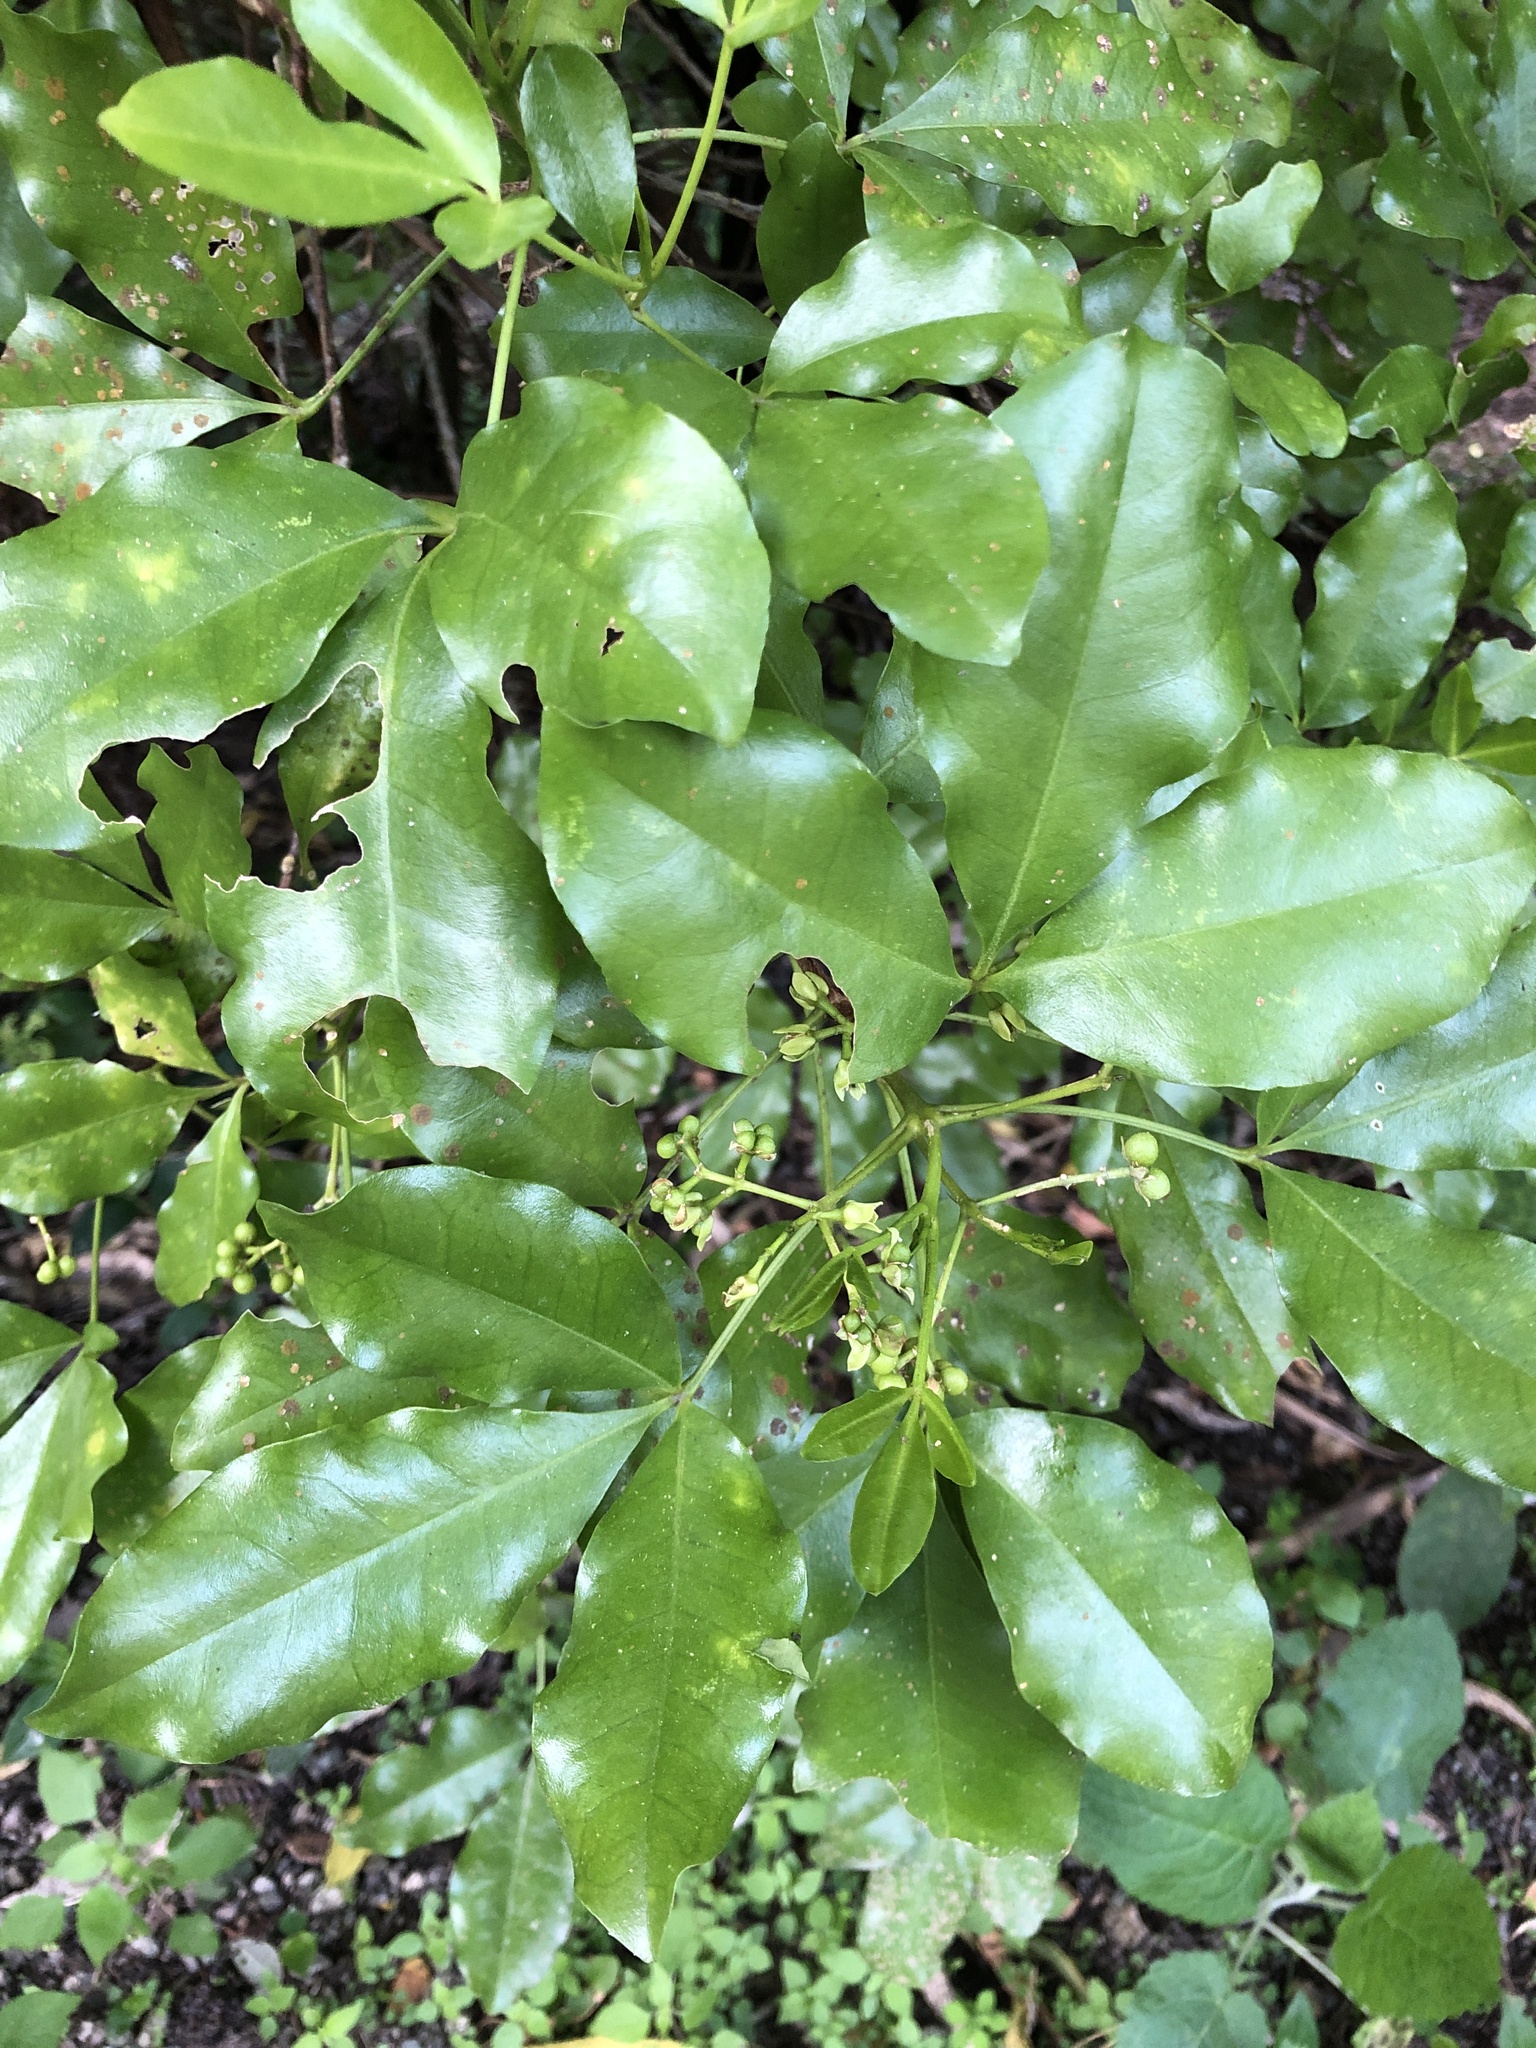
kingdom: Plantae
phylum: Tracheophyta
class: Magnoliopsida
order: Sapindales
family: Rutaceae
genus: Melicope
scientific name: Melicope ternata
